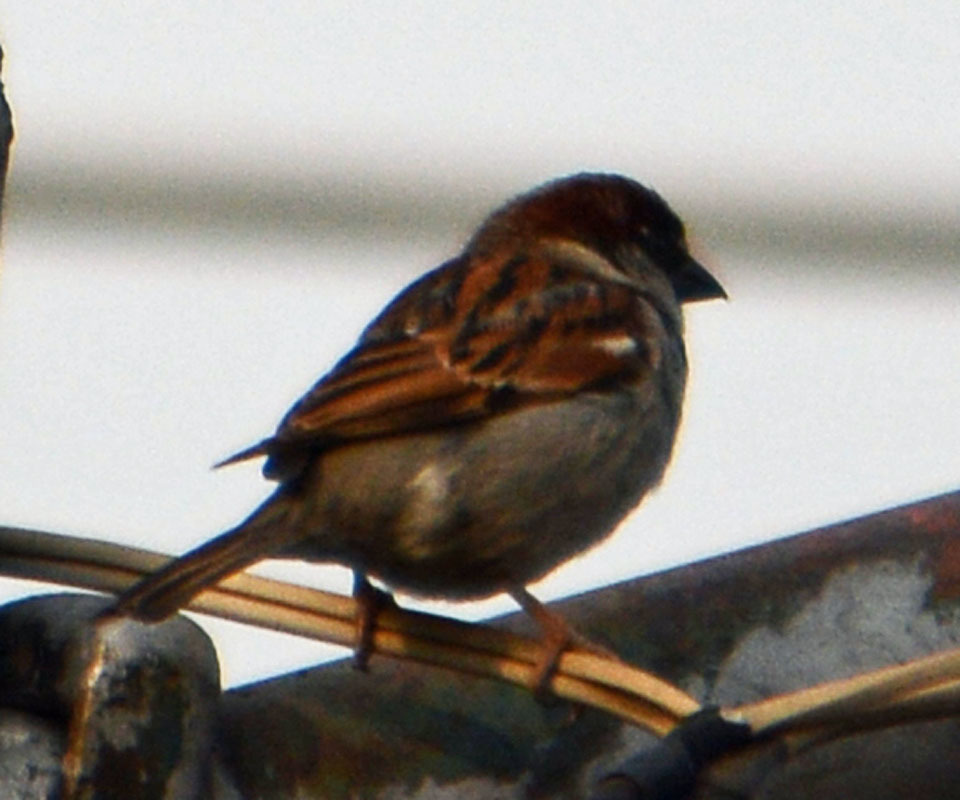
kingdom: Animalia
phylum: Chordata
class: Aves
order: Passeriformes
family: Passeridae
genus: Passer
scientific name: Passer domesticus
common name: House sparrow
